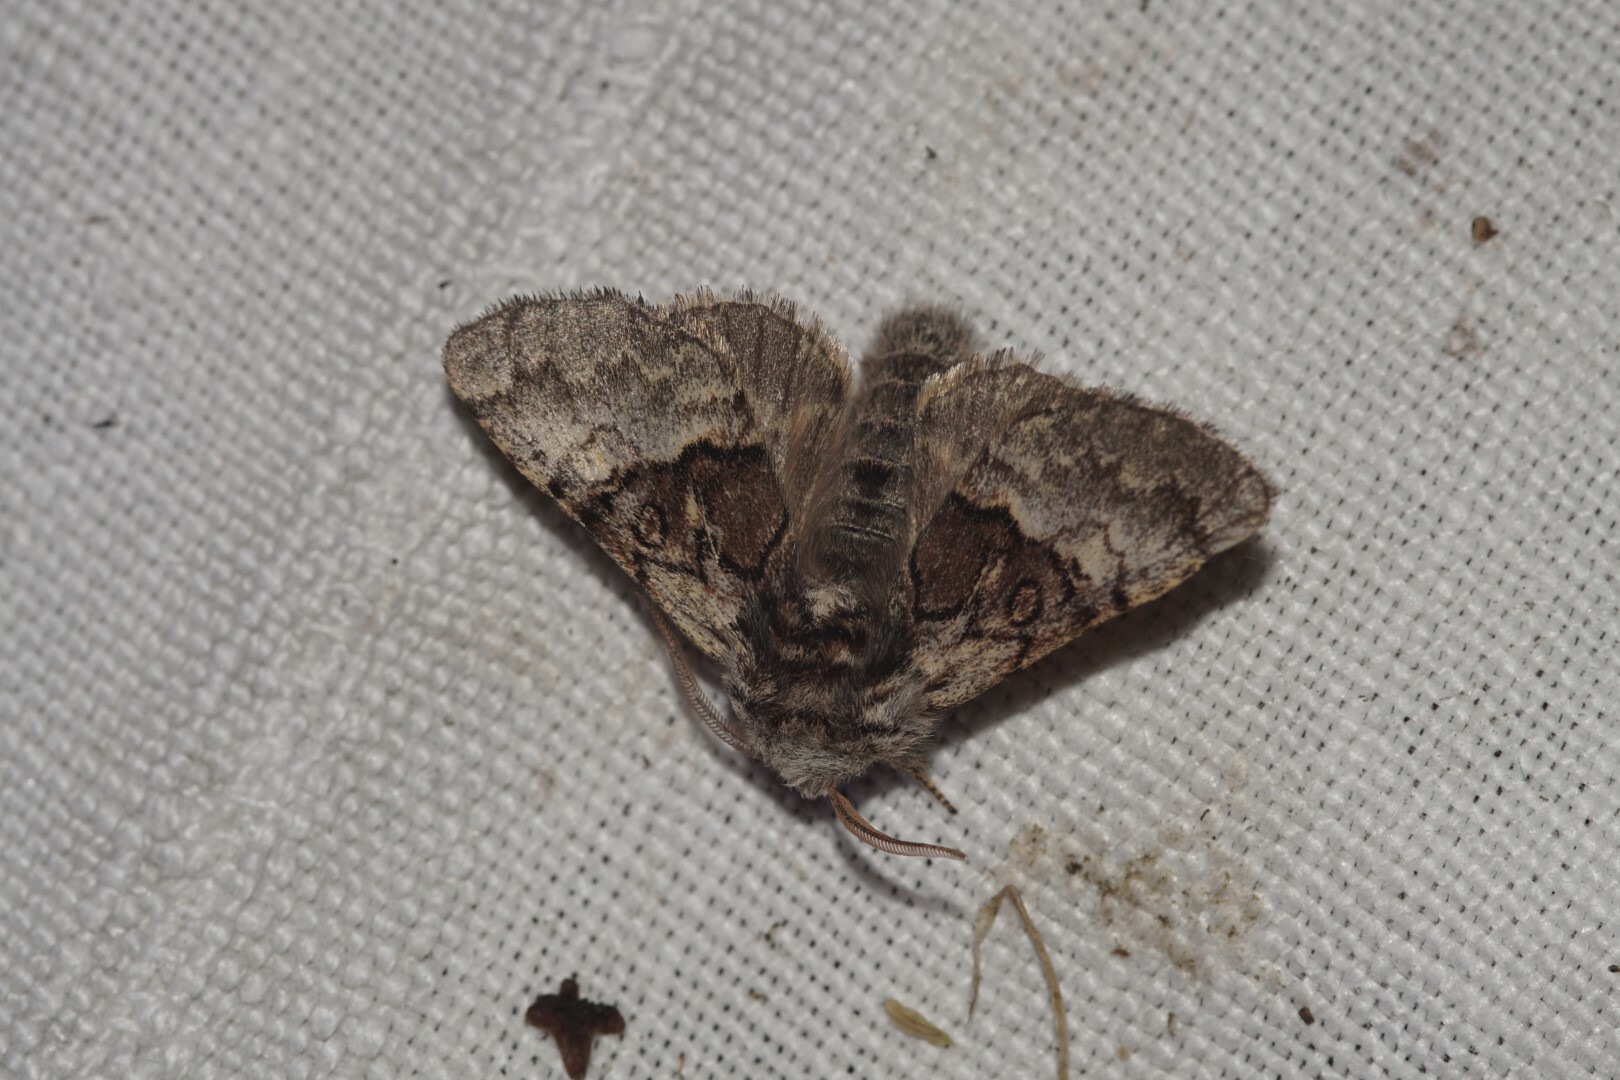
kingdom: Animalia
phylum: Arthropoda
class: Insecta
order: Lepidoptera
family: Noctuidae
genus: Colocasia
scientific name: Colocasia coryli
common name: Nut-tree tussock
